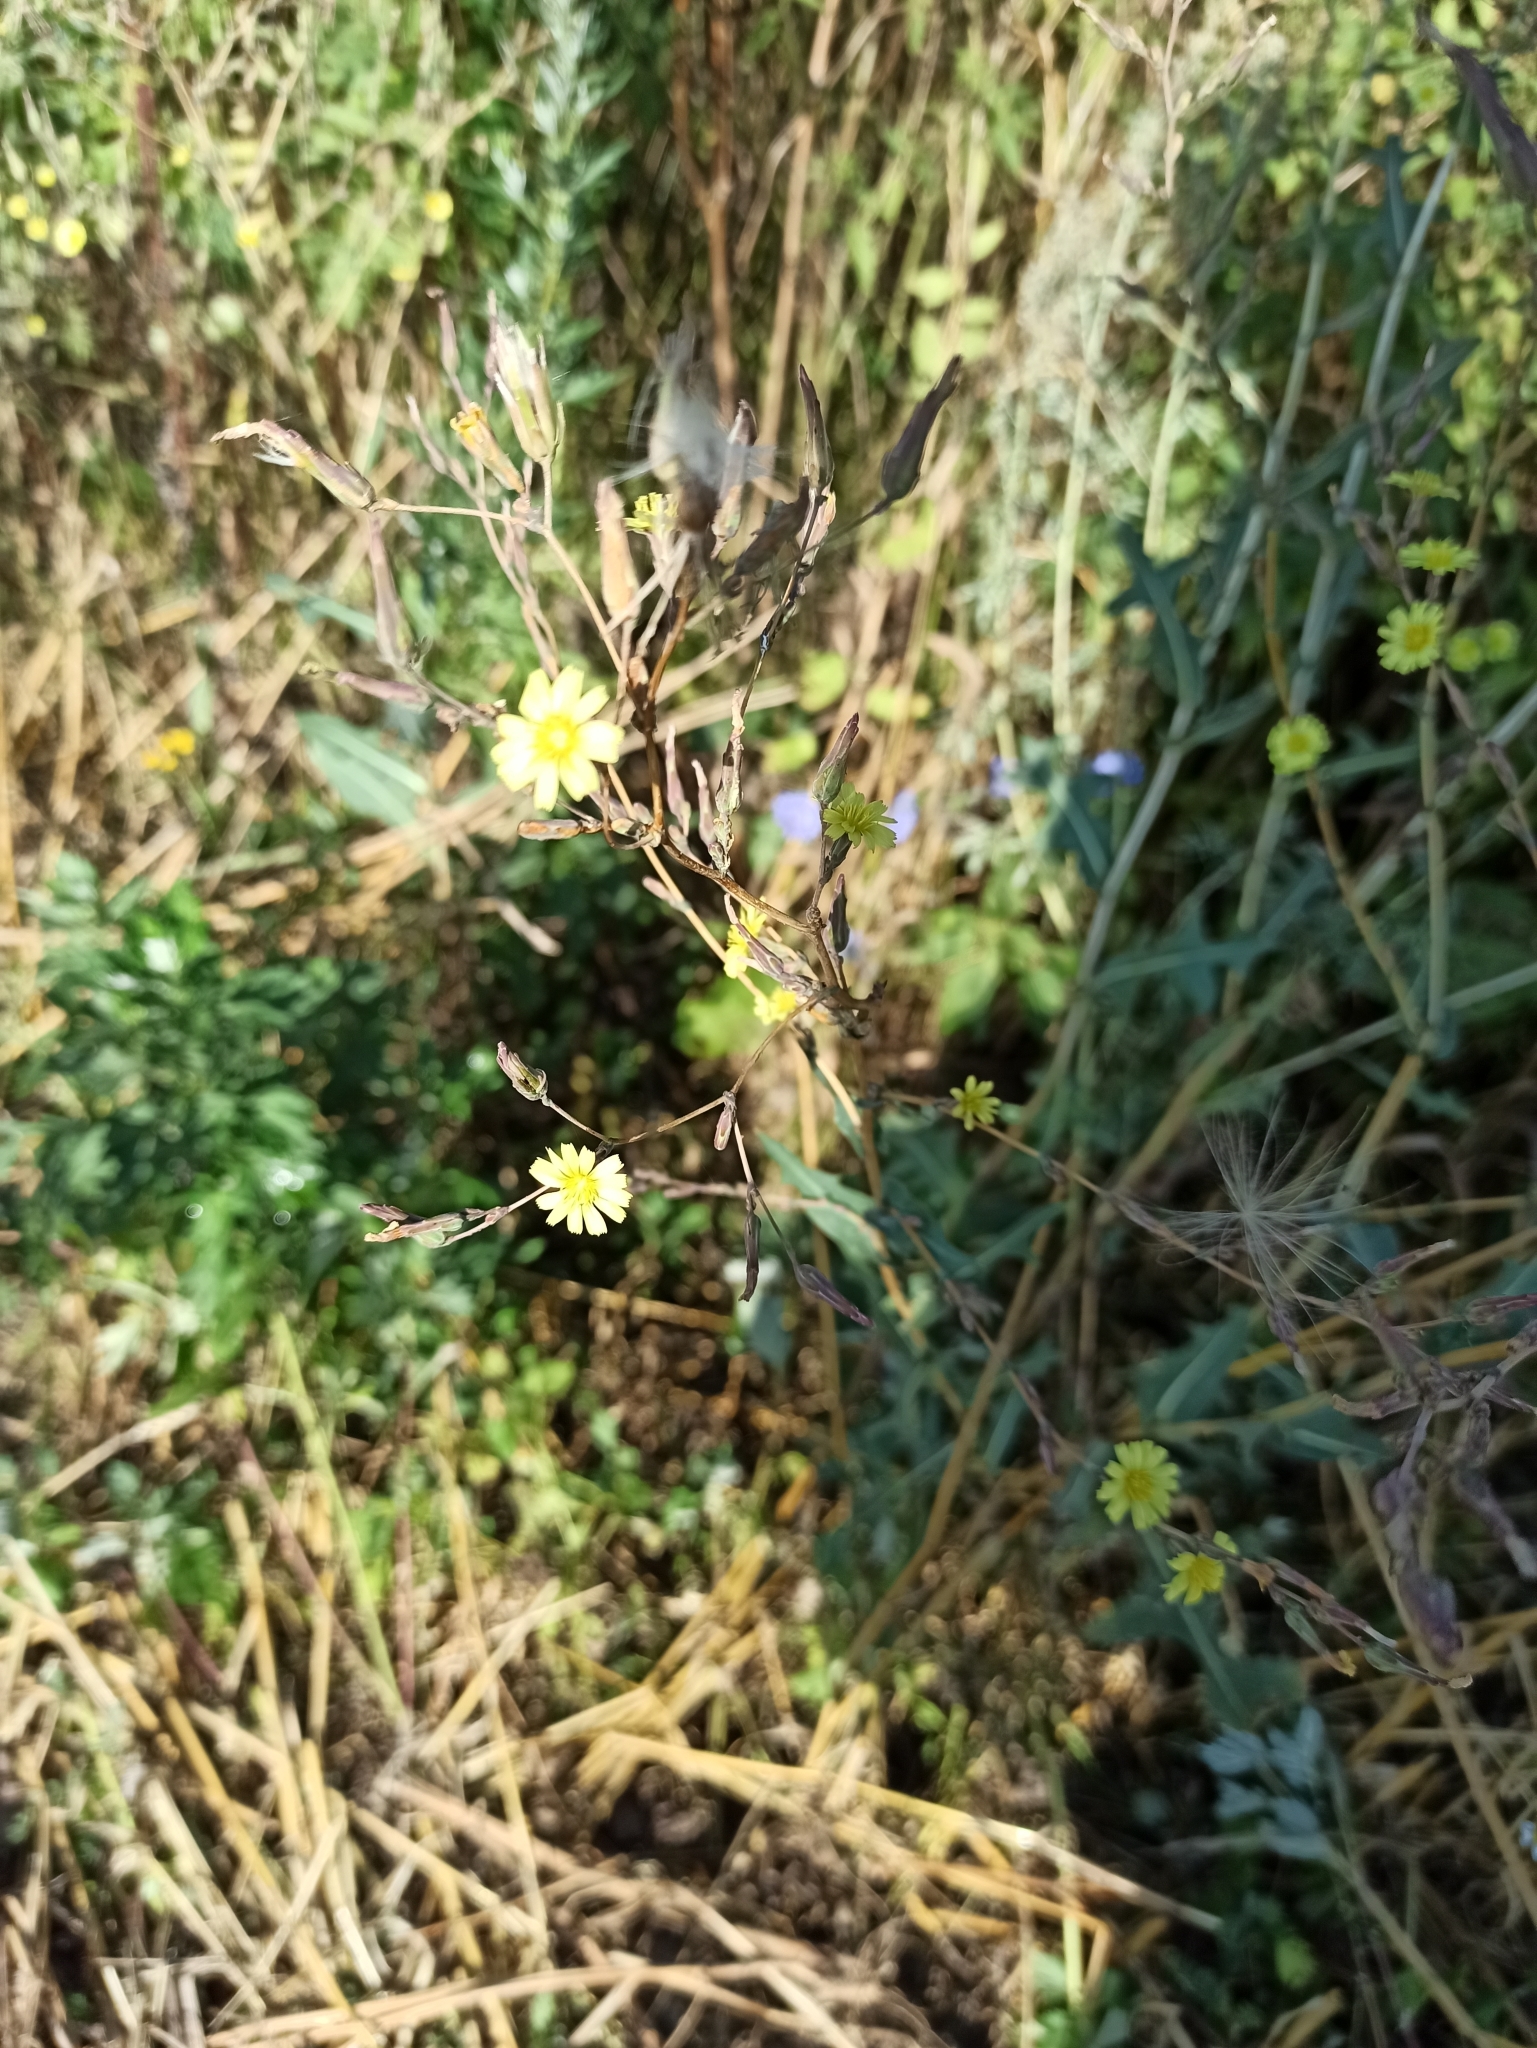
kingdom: Plantae
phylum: Tracheophyta
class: Magnoliopsida
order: Asterales
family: Asteraceae
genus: Lactuca
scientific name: Lactuca serriola
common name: Prickly lettuce
